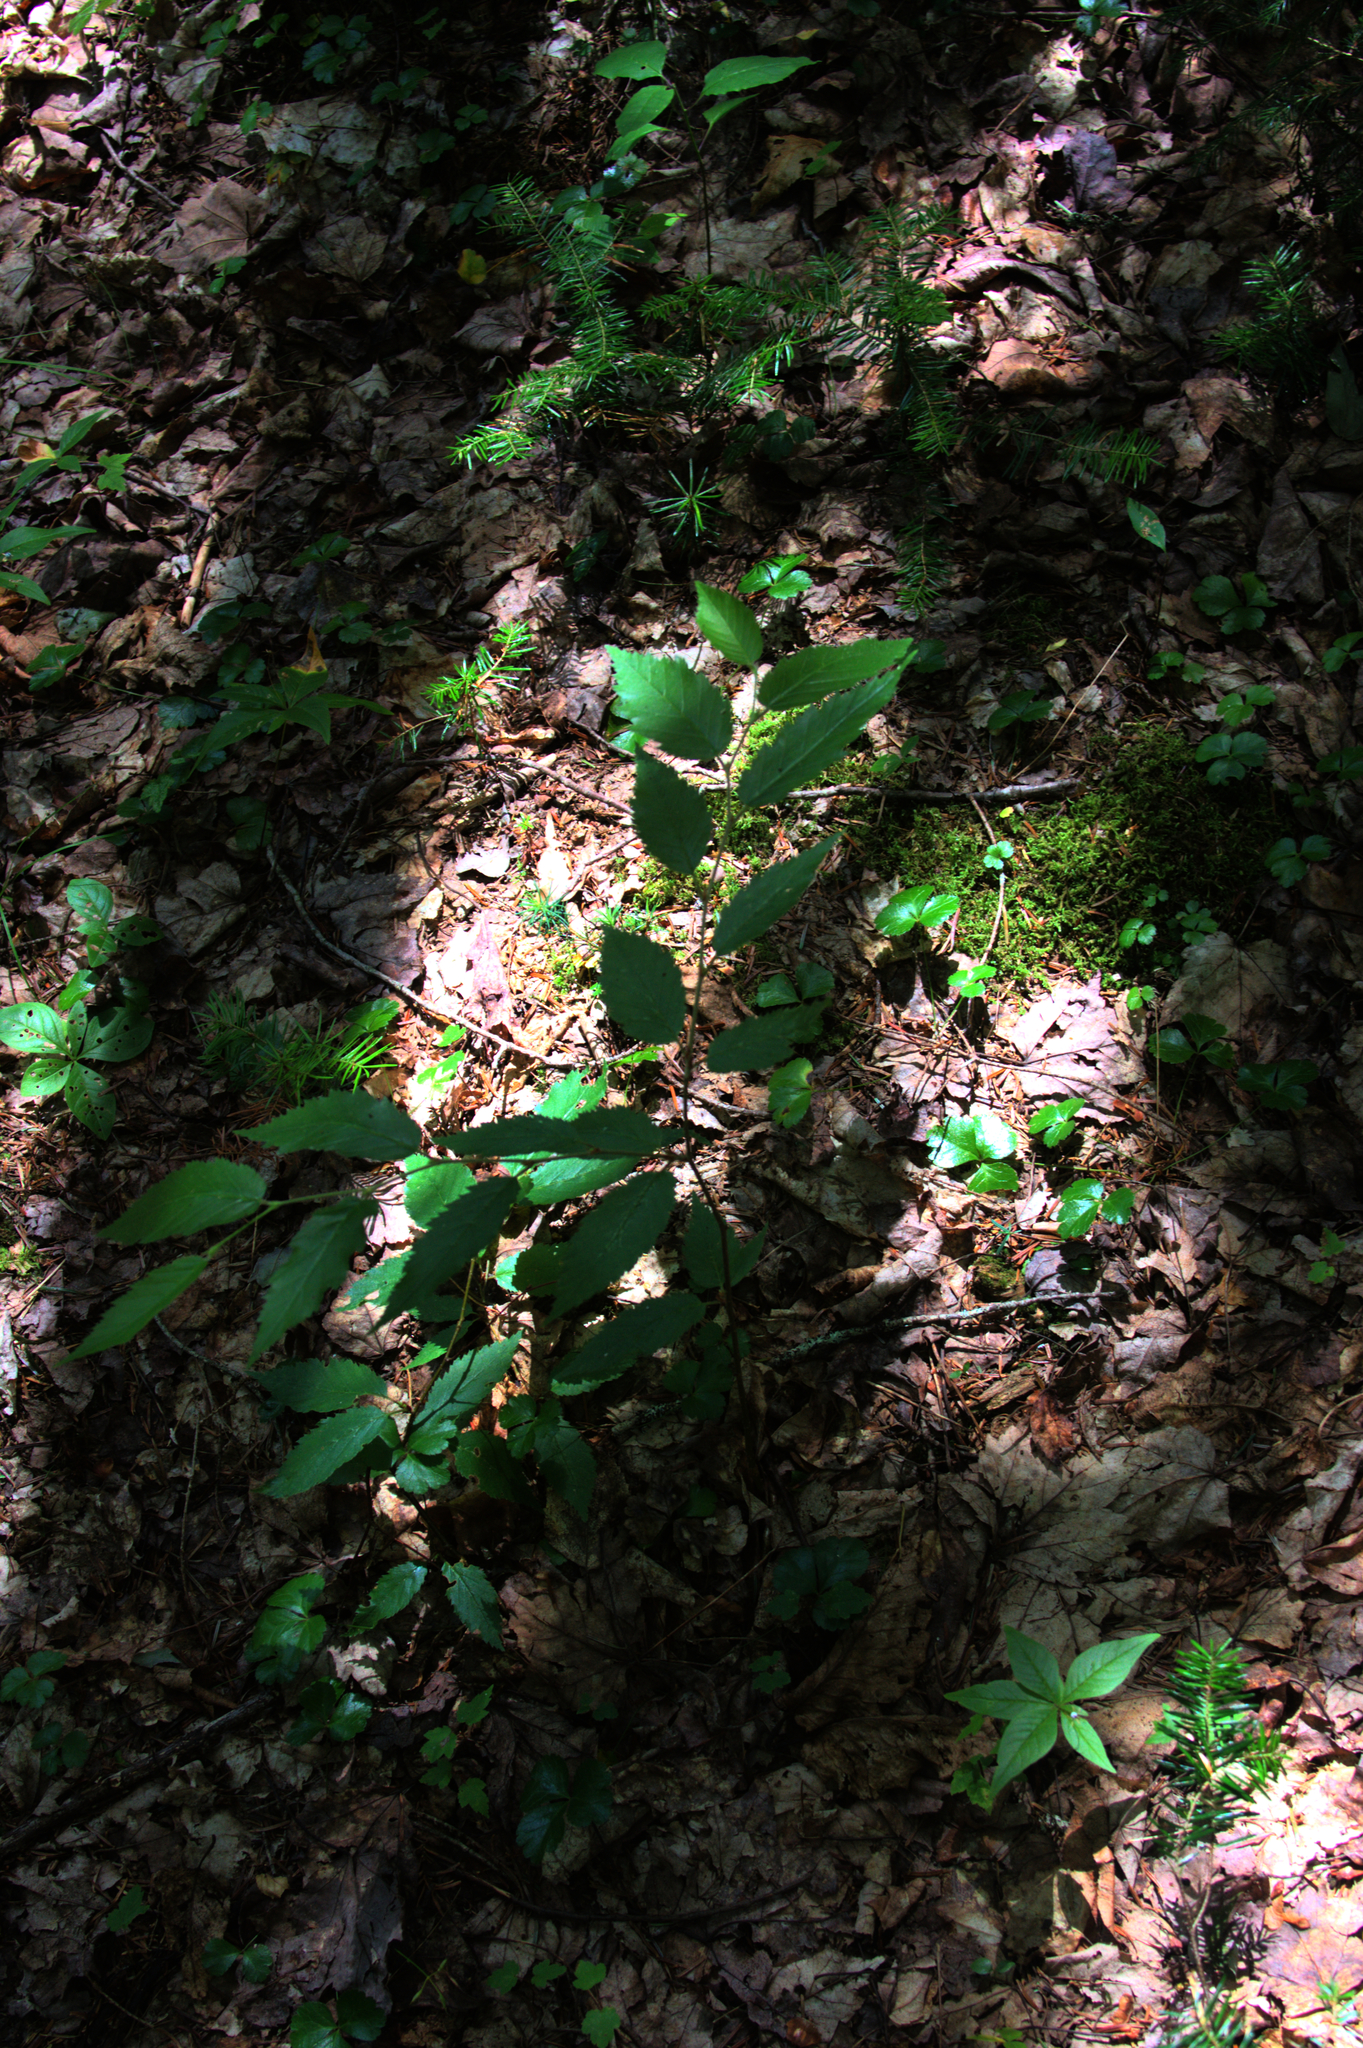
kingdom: Plantae
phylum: Tracheophyta
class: Magnoliopsida
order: Ranunculales
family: Ranunculaceae
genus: Coptis
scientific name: Coptis trifolia
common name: Canker-root
